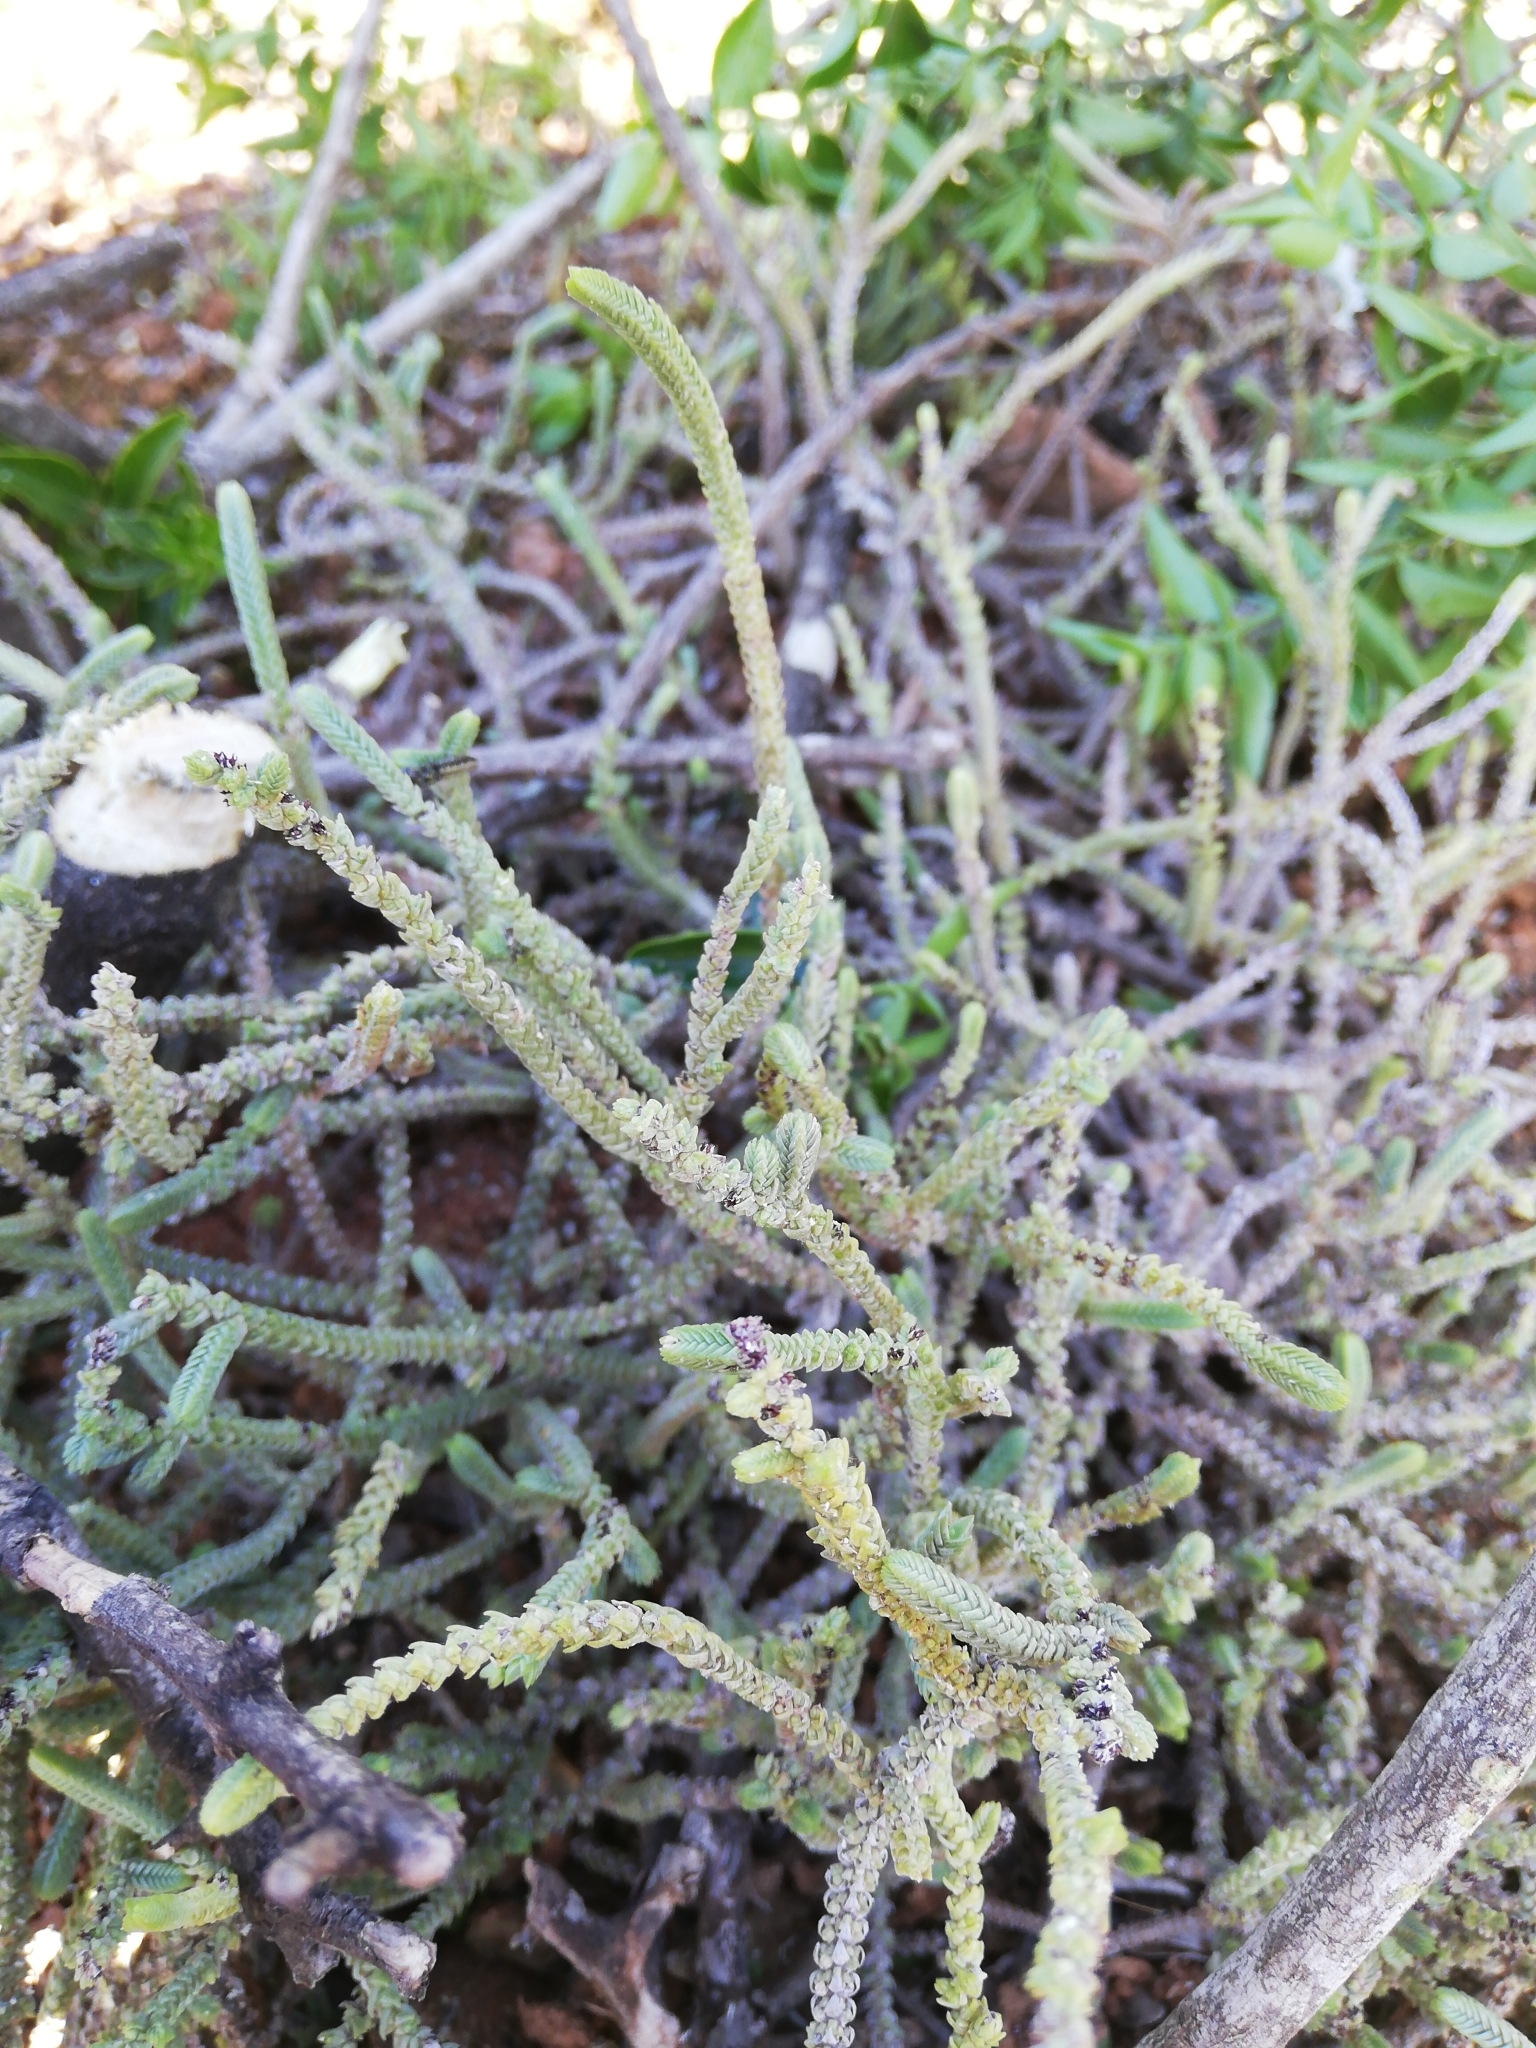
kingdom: Plantae
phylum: Tracheophyta
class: Magnoliopsida
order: Saxifragales
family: Crassulaceae
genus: Crassula
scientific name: Crassula muscosa
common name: Toy-cypress
